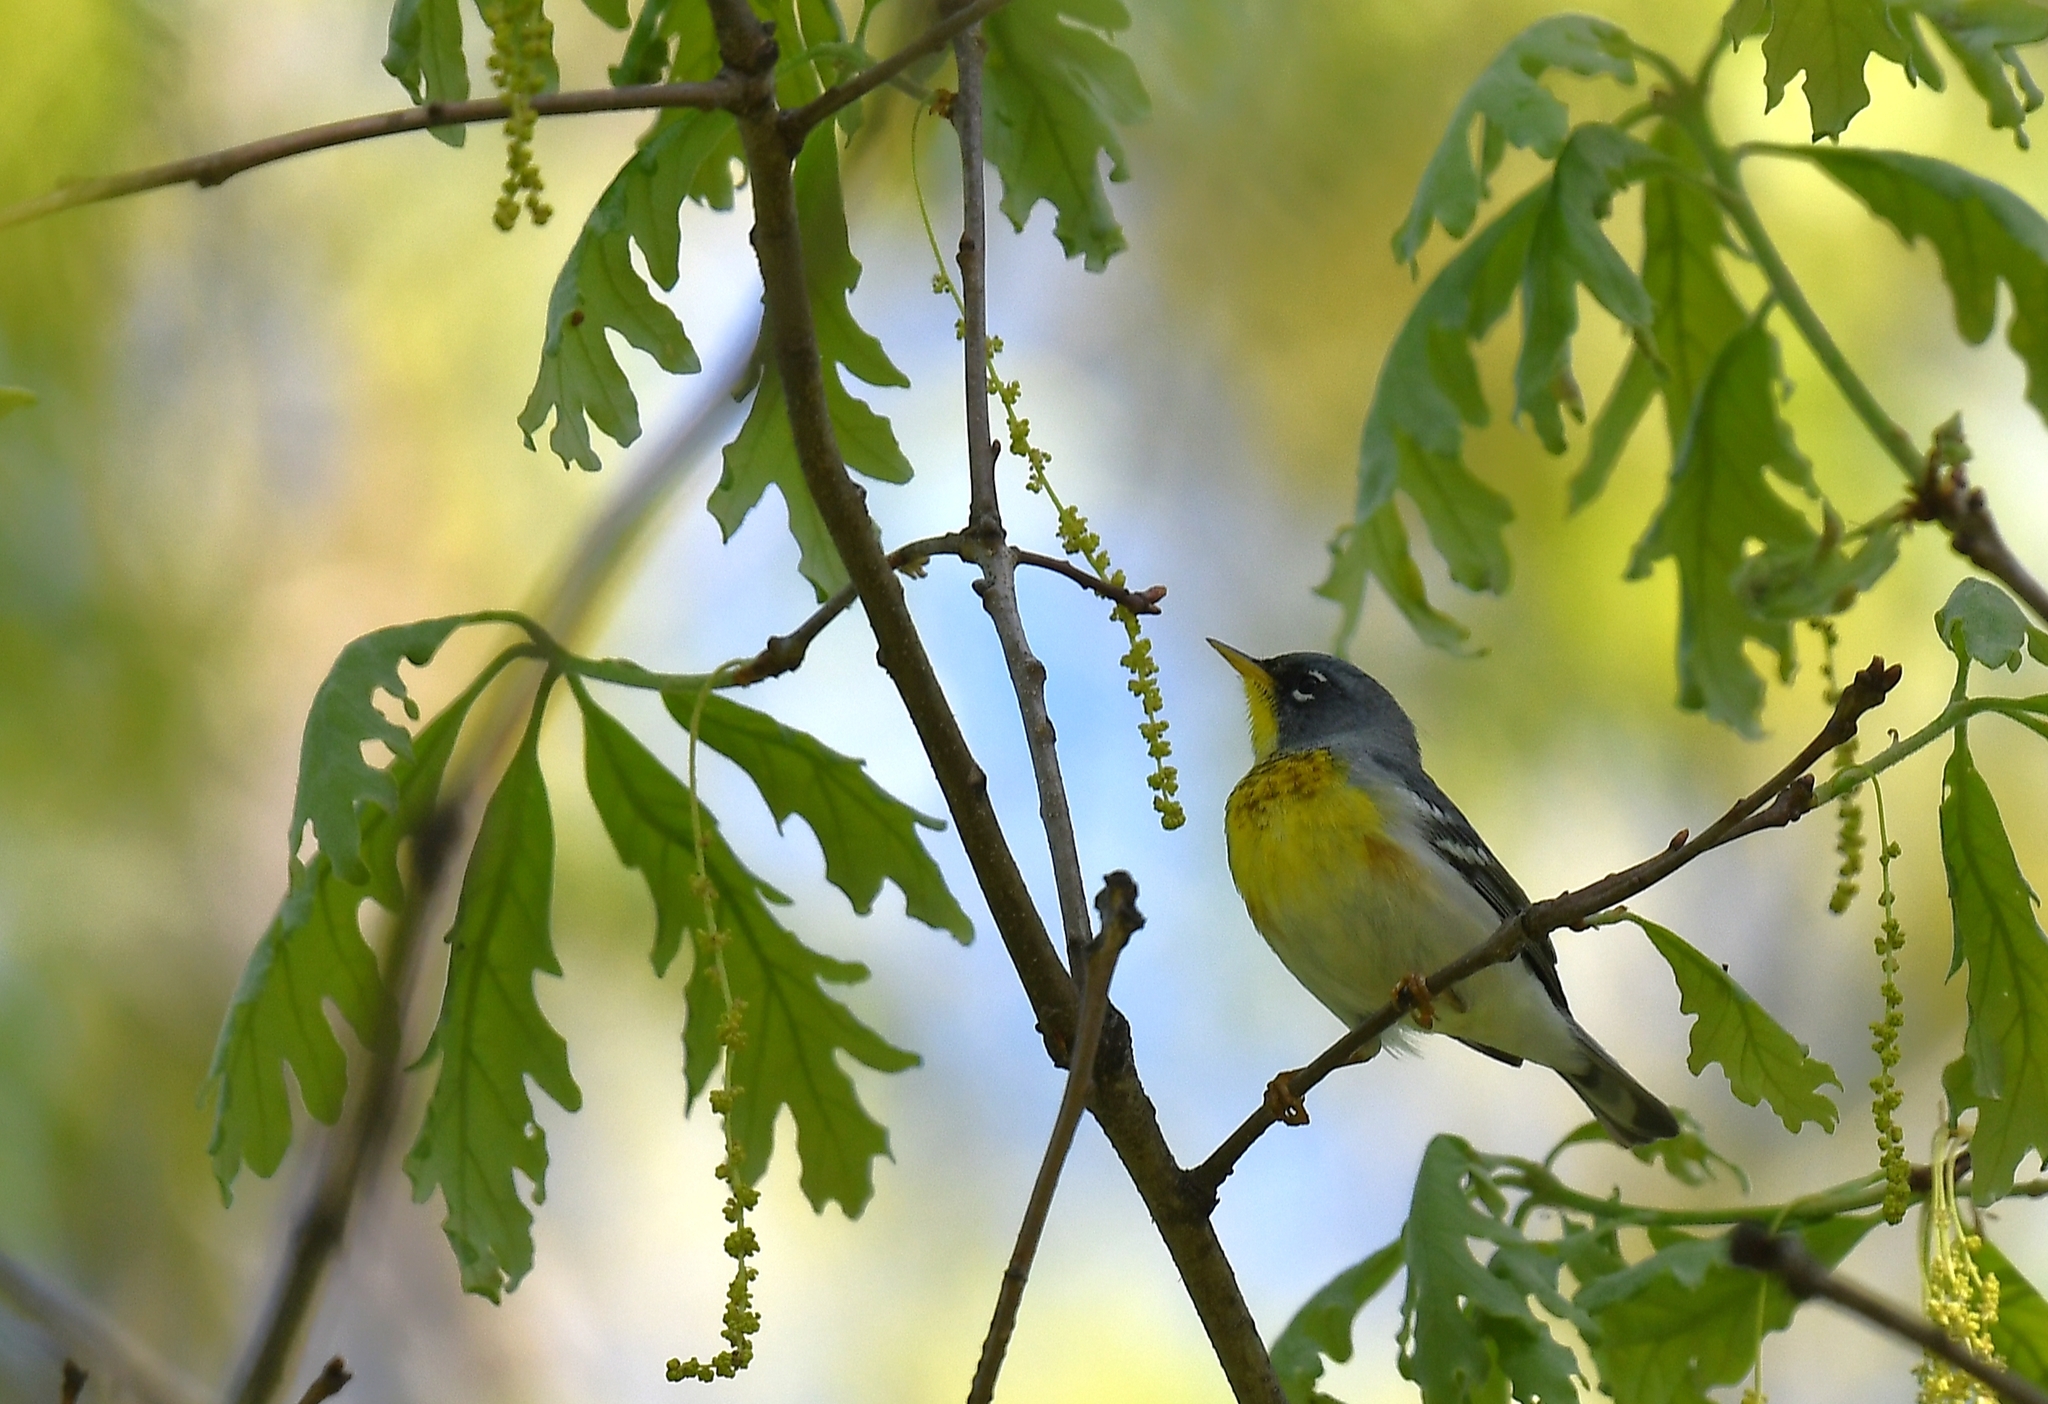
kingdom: Animalia
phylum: Chordata
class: Aves
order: Passeriformes
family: Parulidae
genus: Setophaga
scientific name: Setophaga americana
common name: Northern parula
